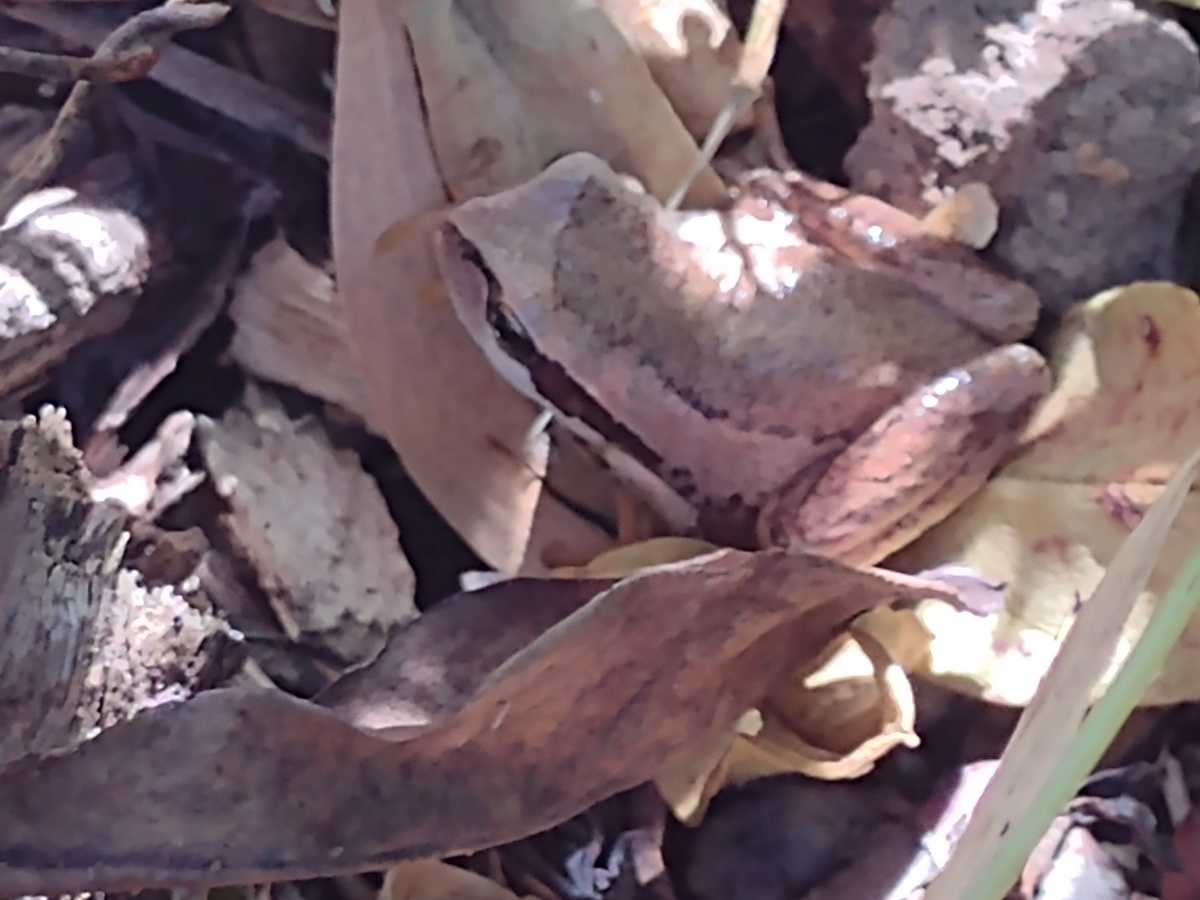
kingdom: Animalia
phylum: Chordata
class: Amphibia
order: Anura
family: Pelodryadidae
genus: Litoria
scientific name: Litoria ewingii
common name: Southern brown tree frog
